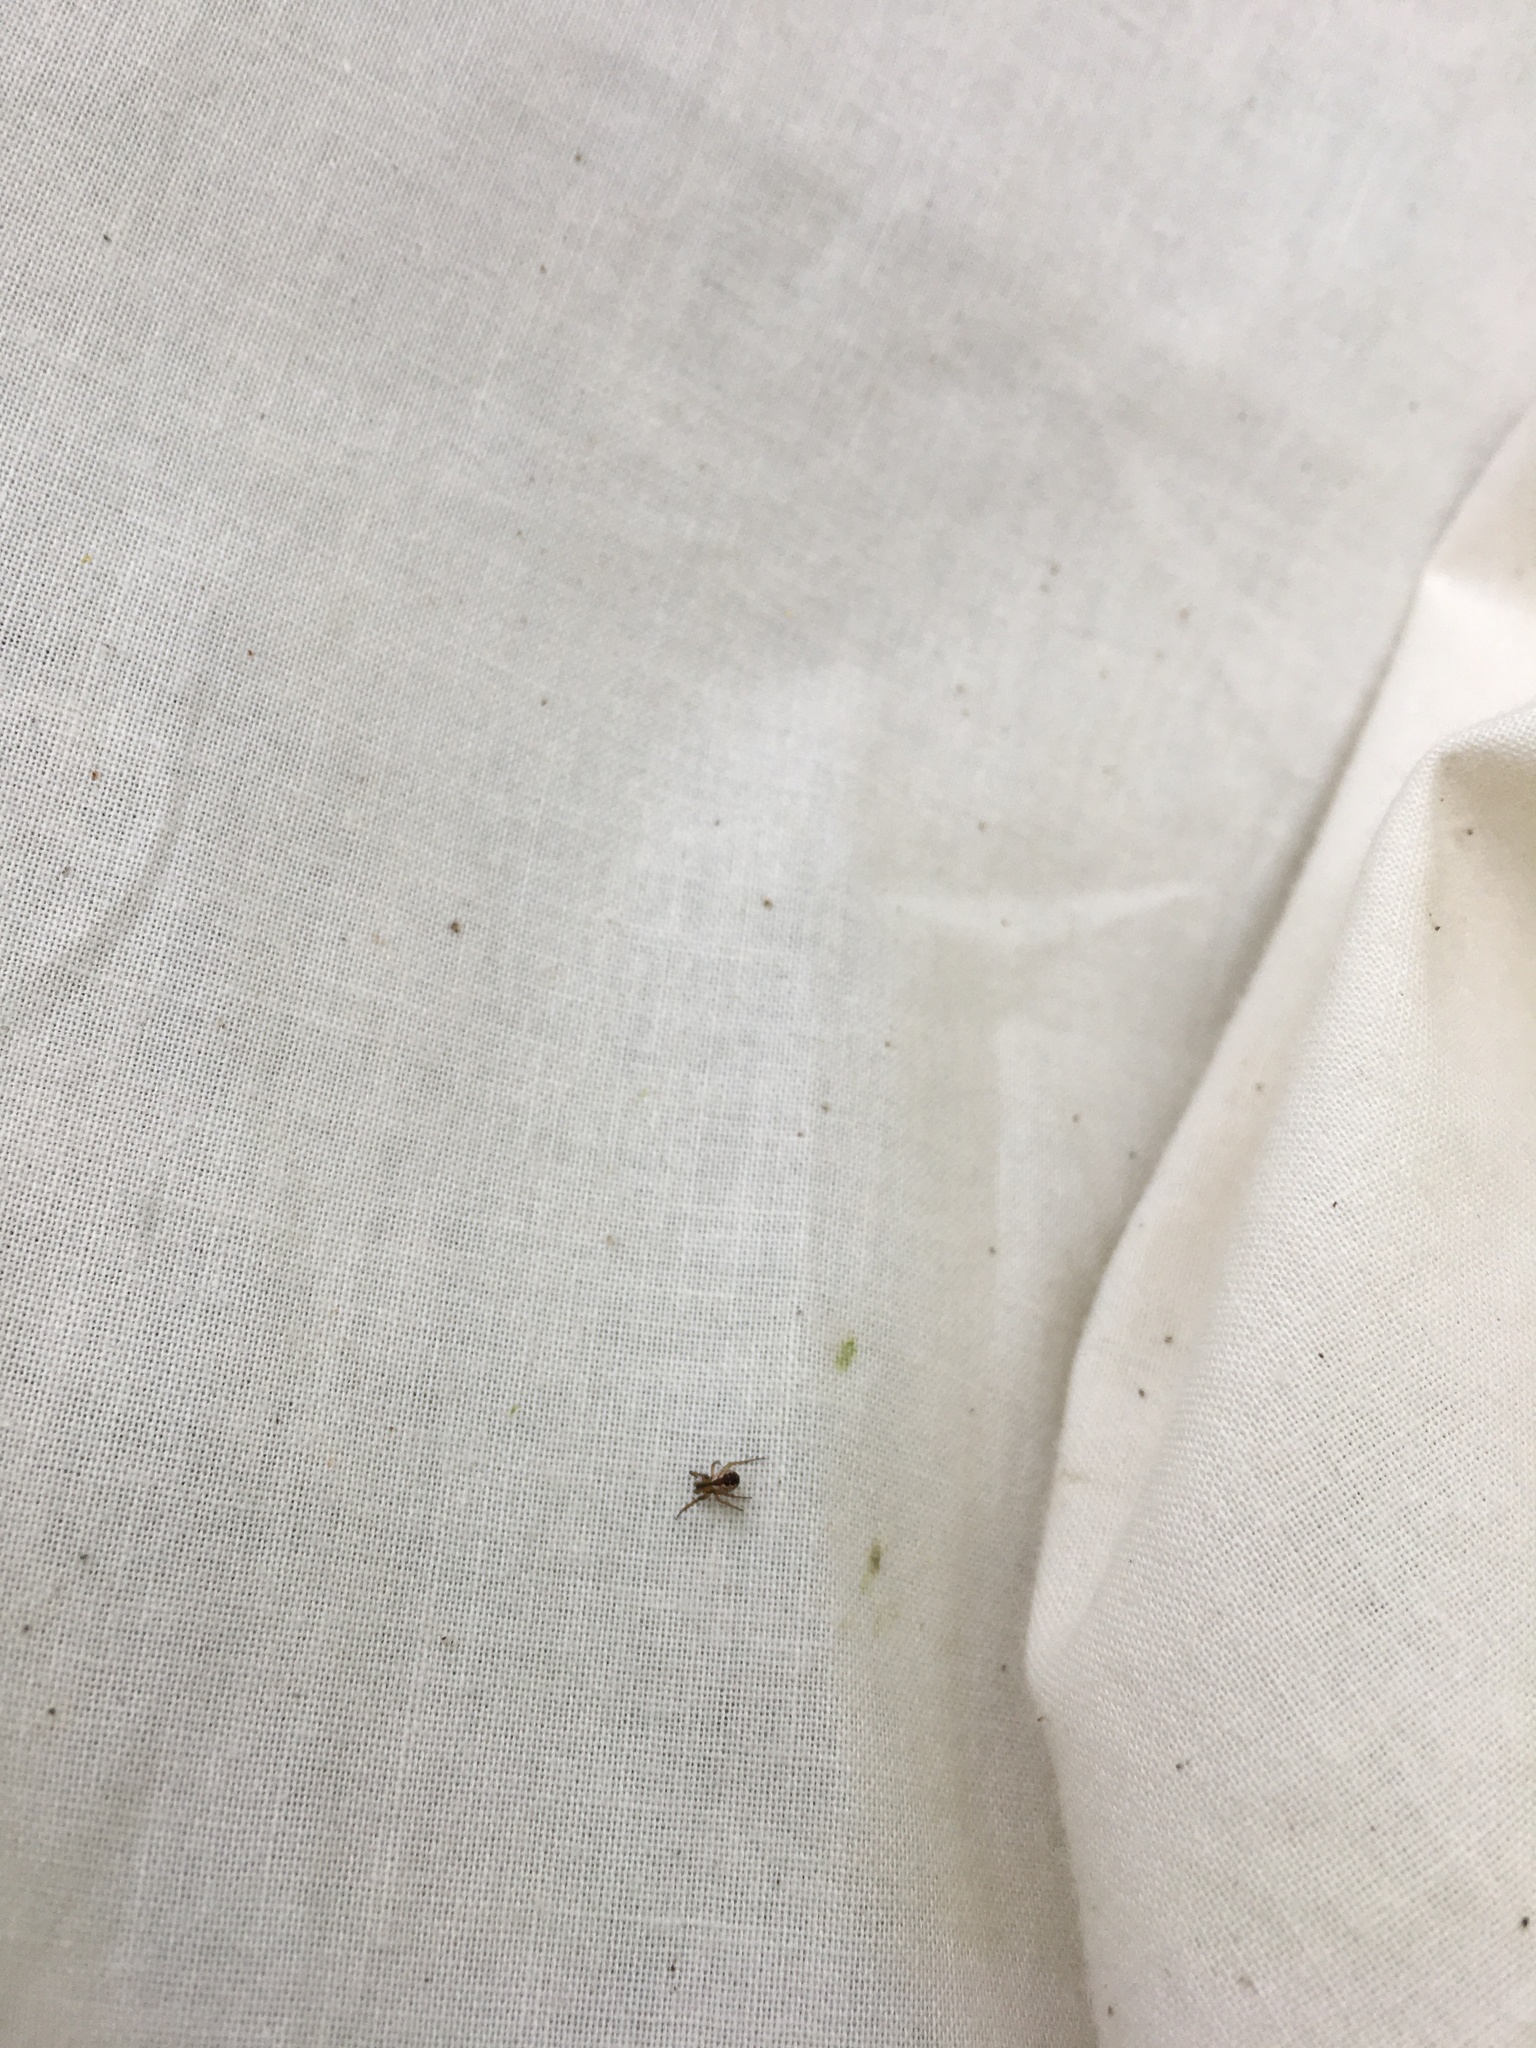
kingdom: Animalia
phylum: Arthropoda
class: Arachnida
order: Araneae
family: Araneidae
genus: Mangora
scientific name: Mangora placida
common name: Tuft-legged orbweaver
